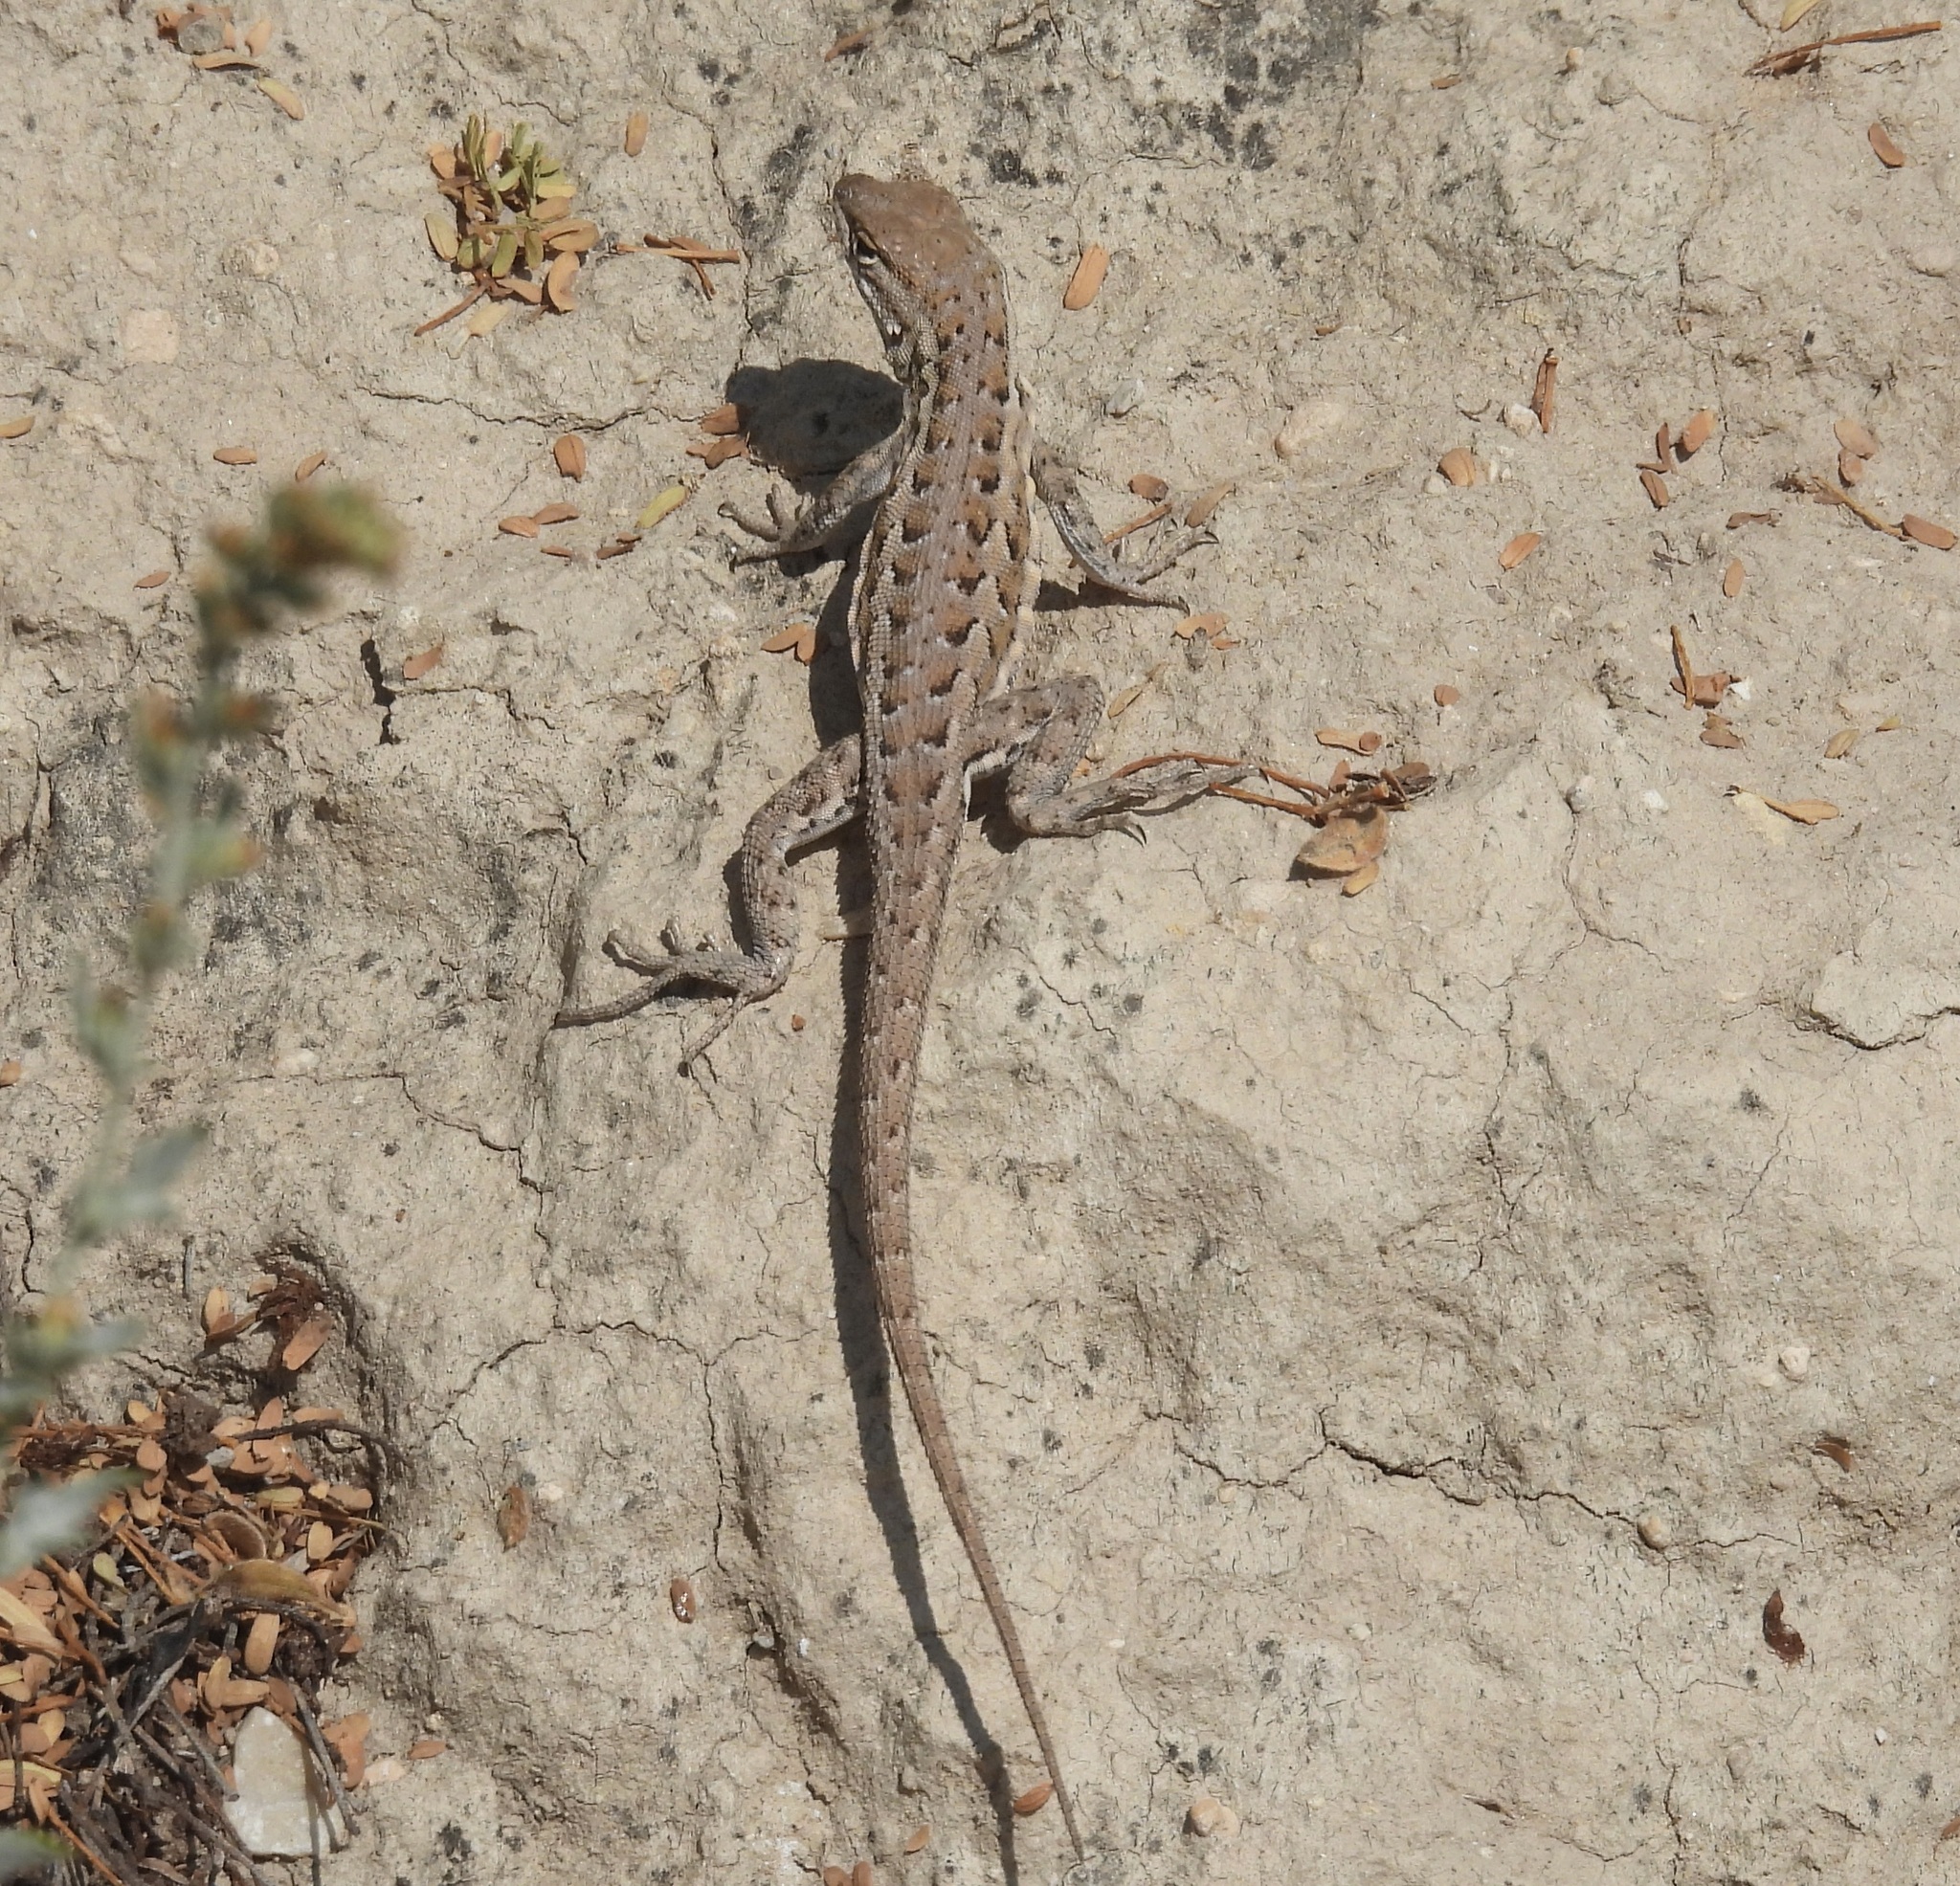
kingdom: Animalia
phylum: Chordata
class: Squamata
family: Phrynosomatidae
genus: Uta
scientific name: Uta stansburiana
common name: Side-blotched lizard
